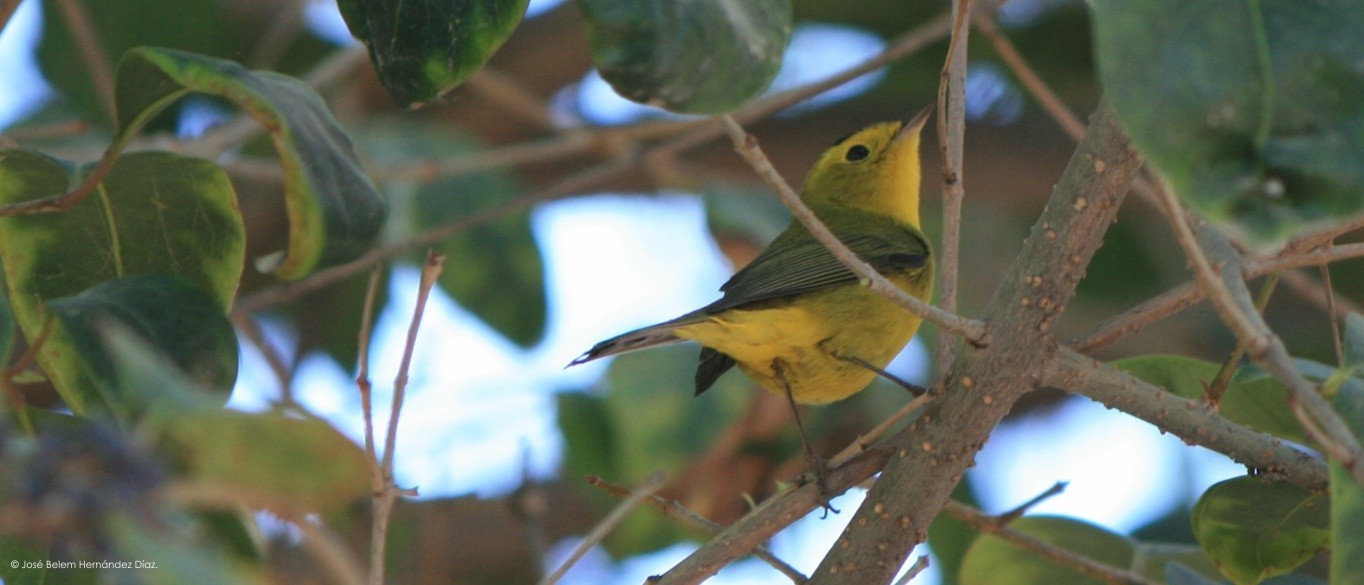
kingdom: Animalia
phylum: Chordata
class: Aves
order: Passeriformes
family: Parulidae
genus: Cardellina
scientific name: Cardellina pusilla
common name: Wilson's warbler
